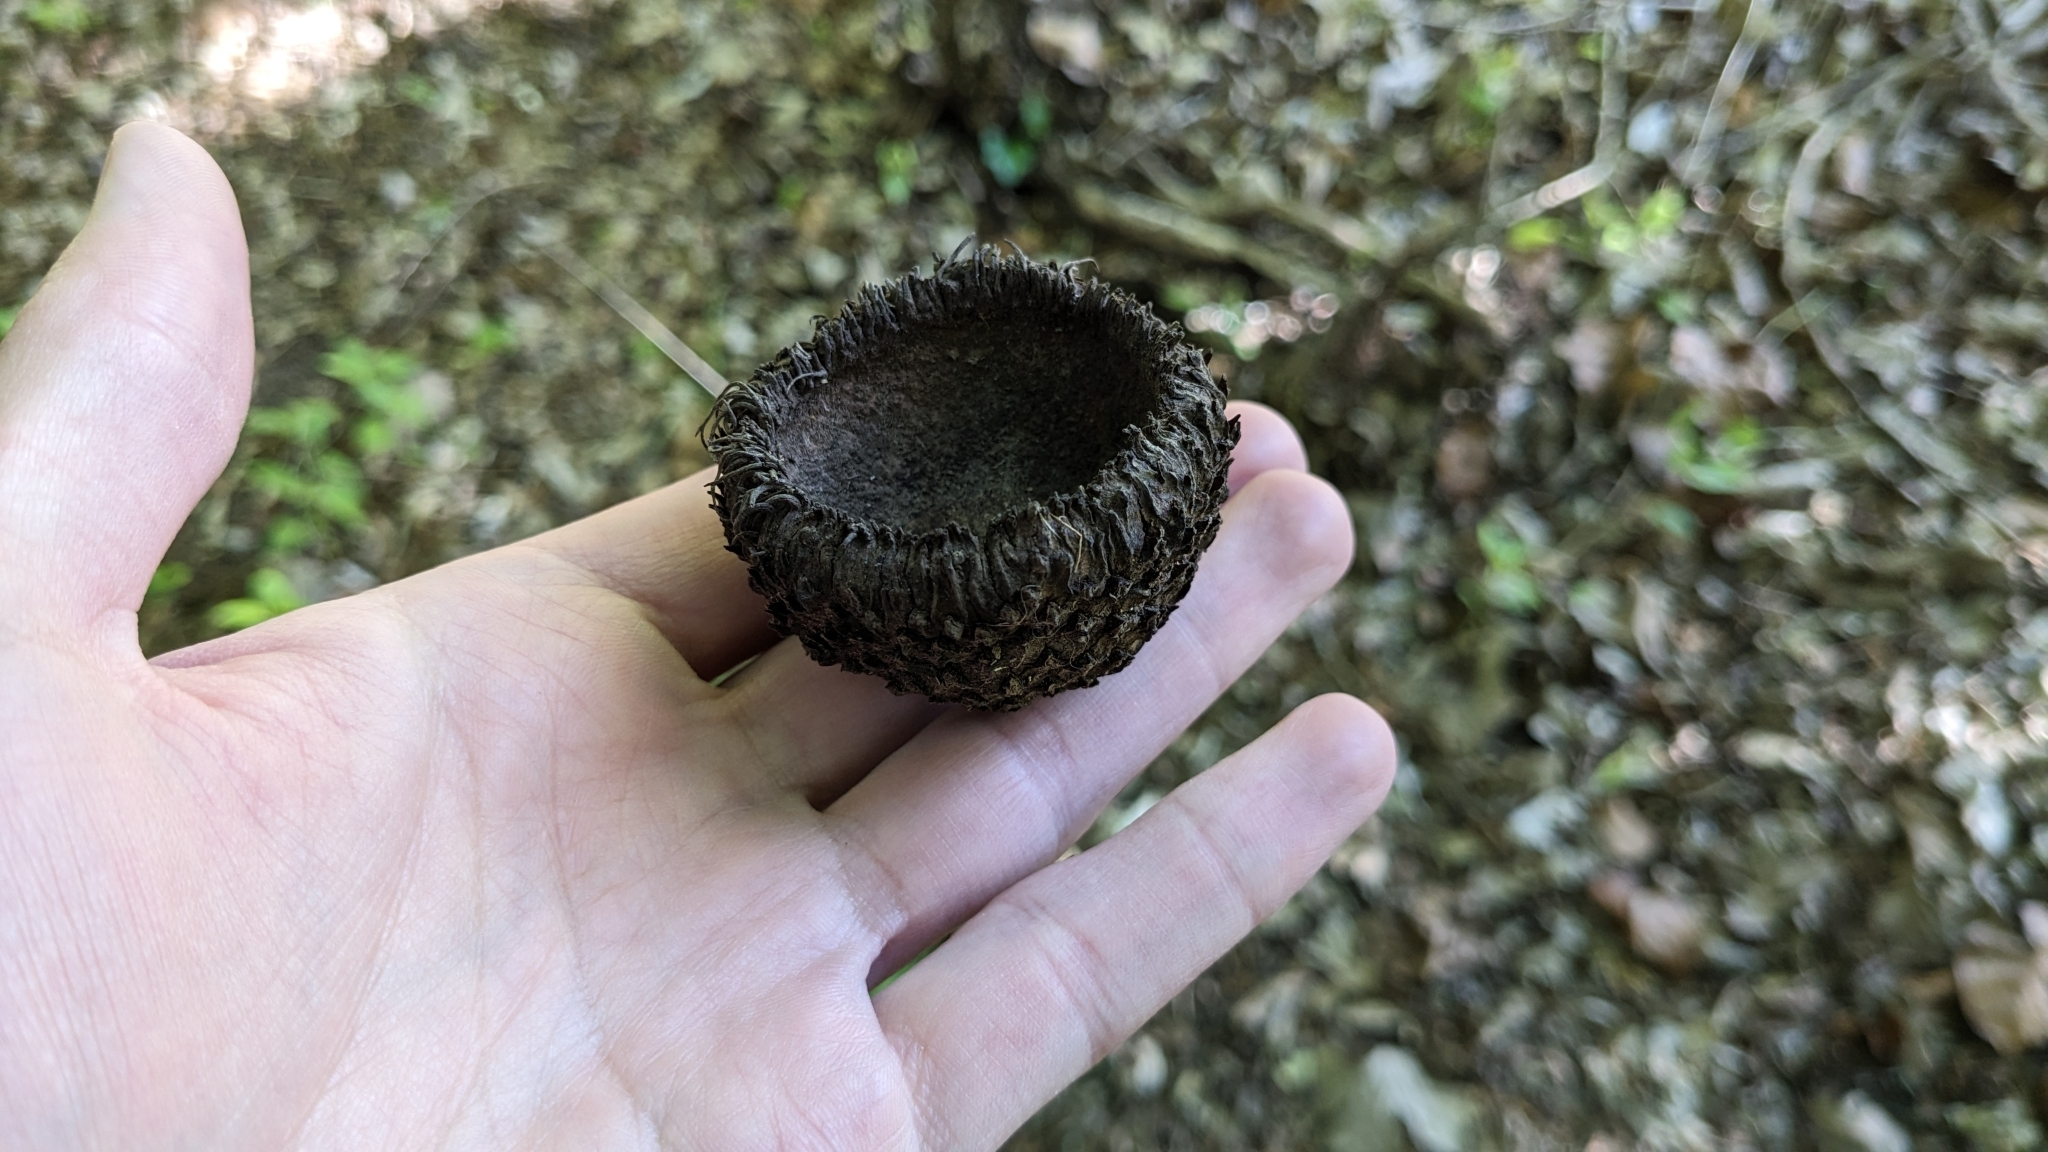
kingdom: Plantae
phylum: Tracheophyta
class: Magnoliopsida
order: Fagales
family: Fagaceae
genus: Quercus
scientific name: Quercus macrocarpa
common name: Bur oak
